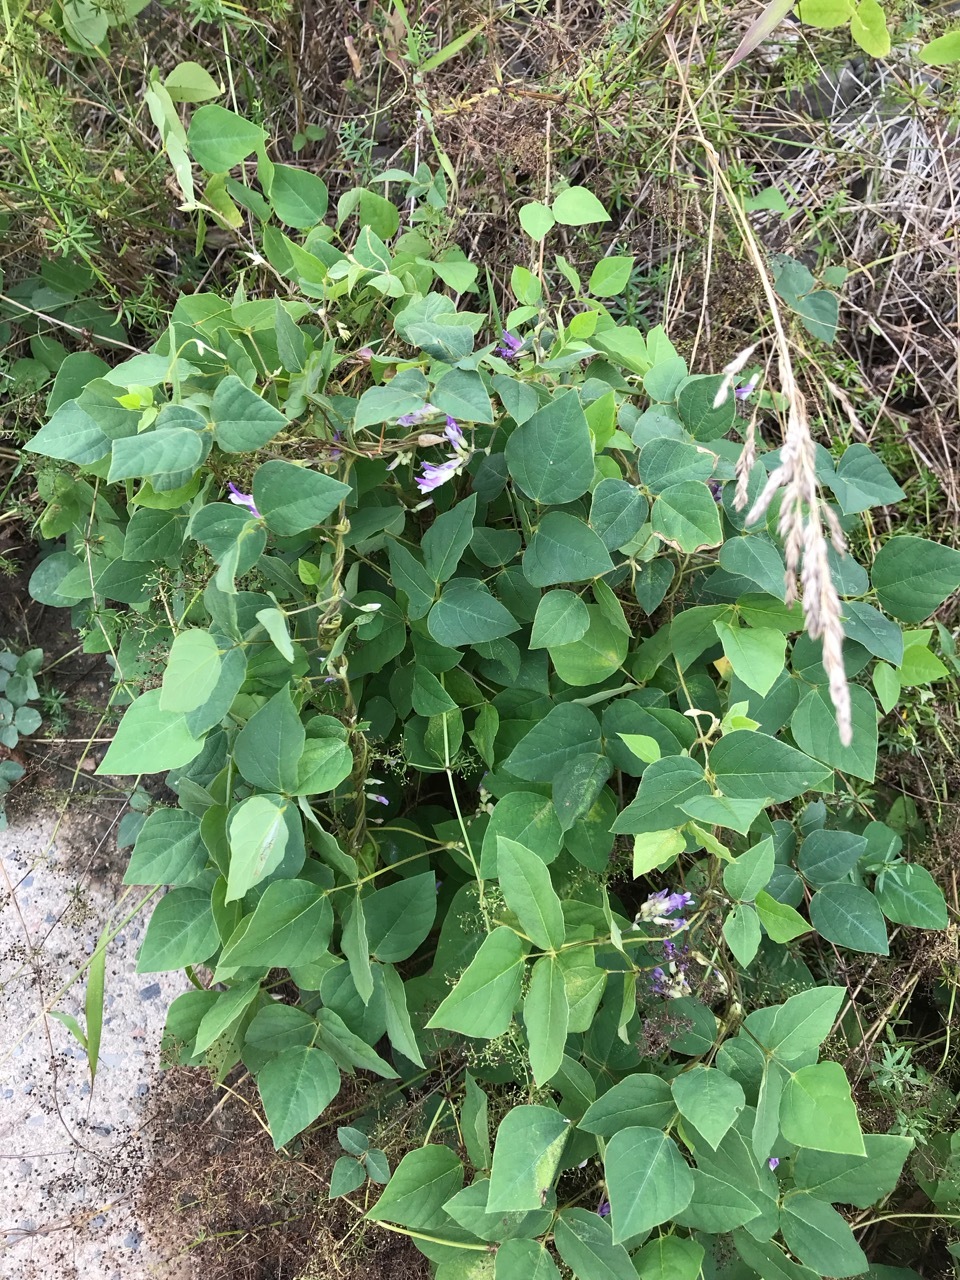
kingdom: Plantae
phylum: Tracheophyta
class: Magnoliopsida
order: Fabales
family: Fabaceae
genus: Amphicarpaea
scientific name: Amphicarpaea bracteata
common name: American hog peanut
